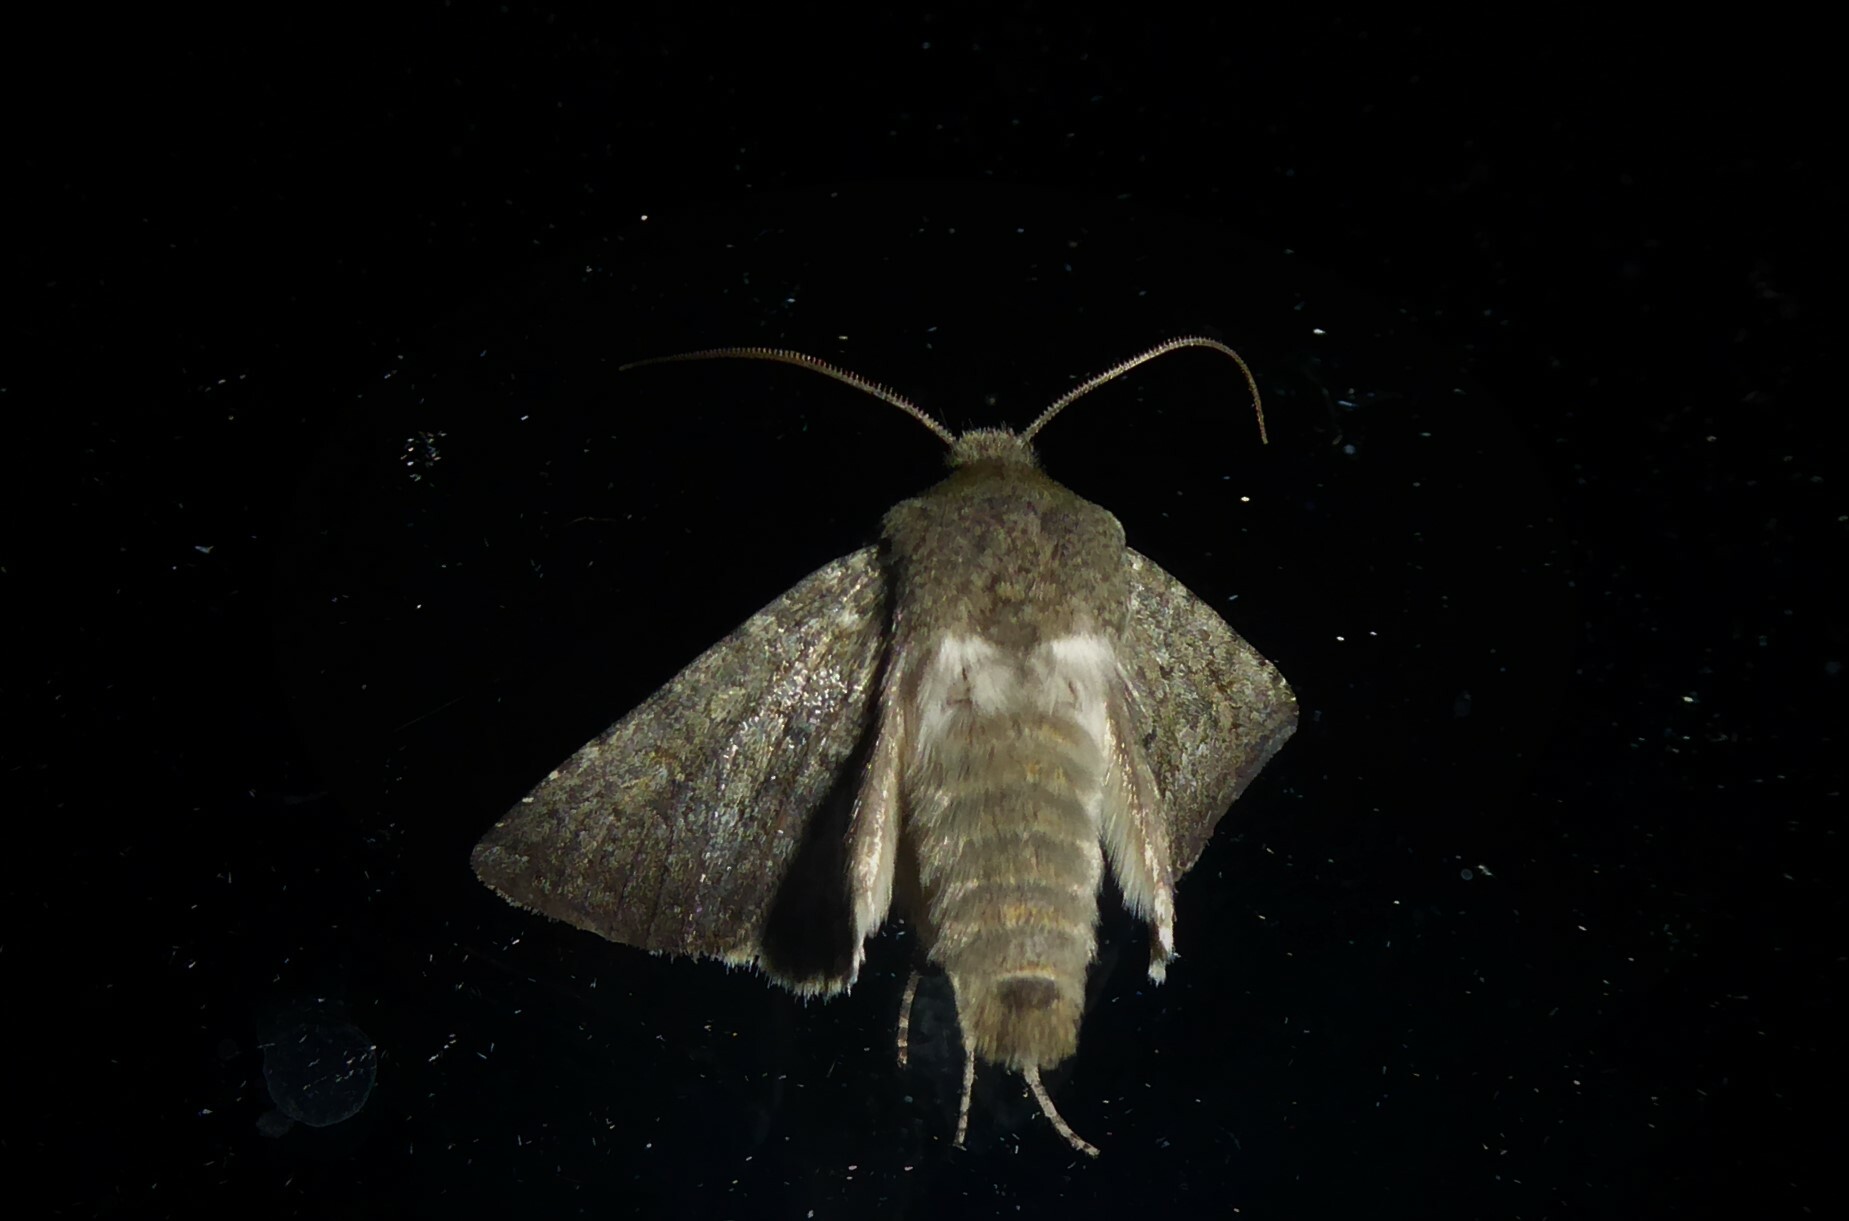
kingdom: Animalia
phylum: Arthropoda
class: Insecta
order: Lepidoptera
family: Noctuidae
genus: Ichneutica
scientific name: Ichneutica moderata
